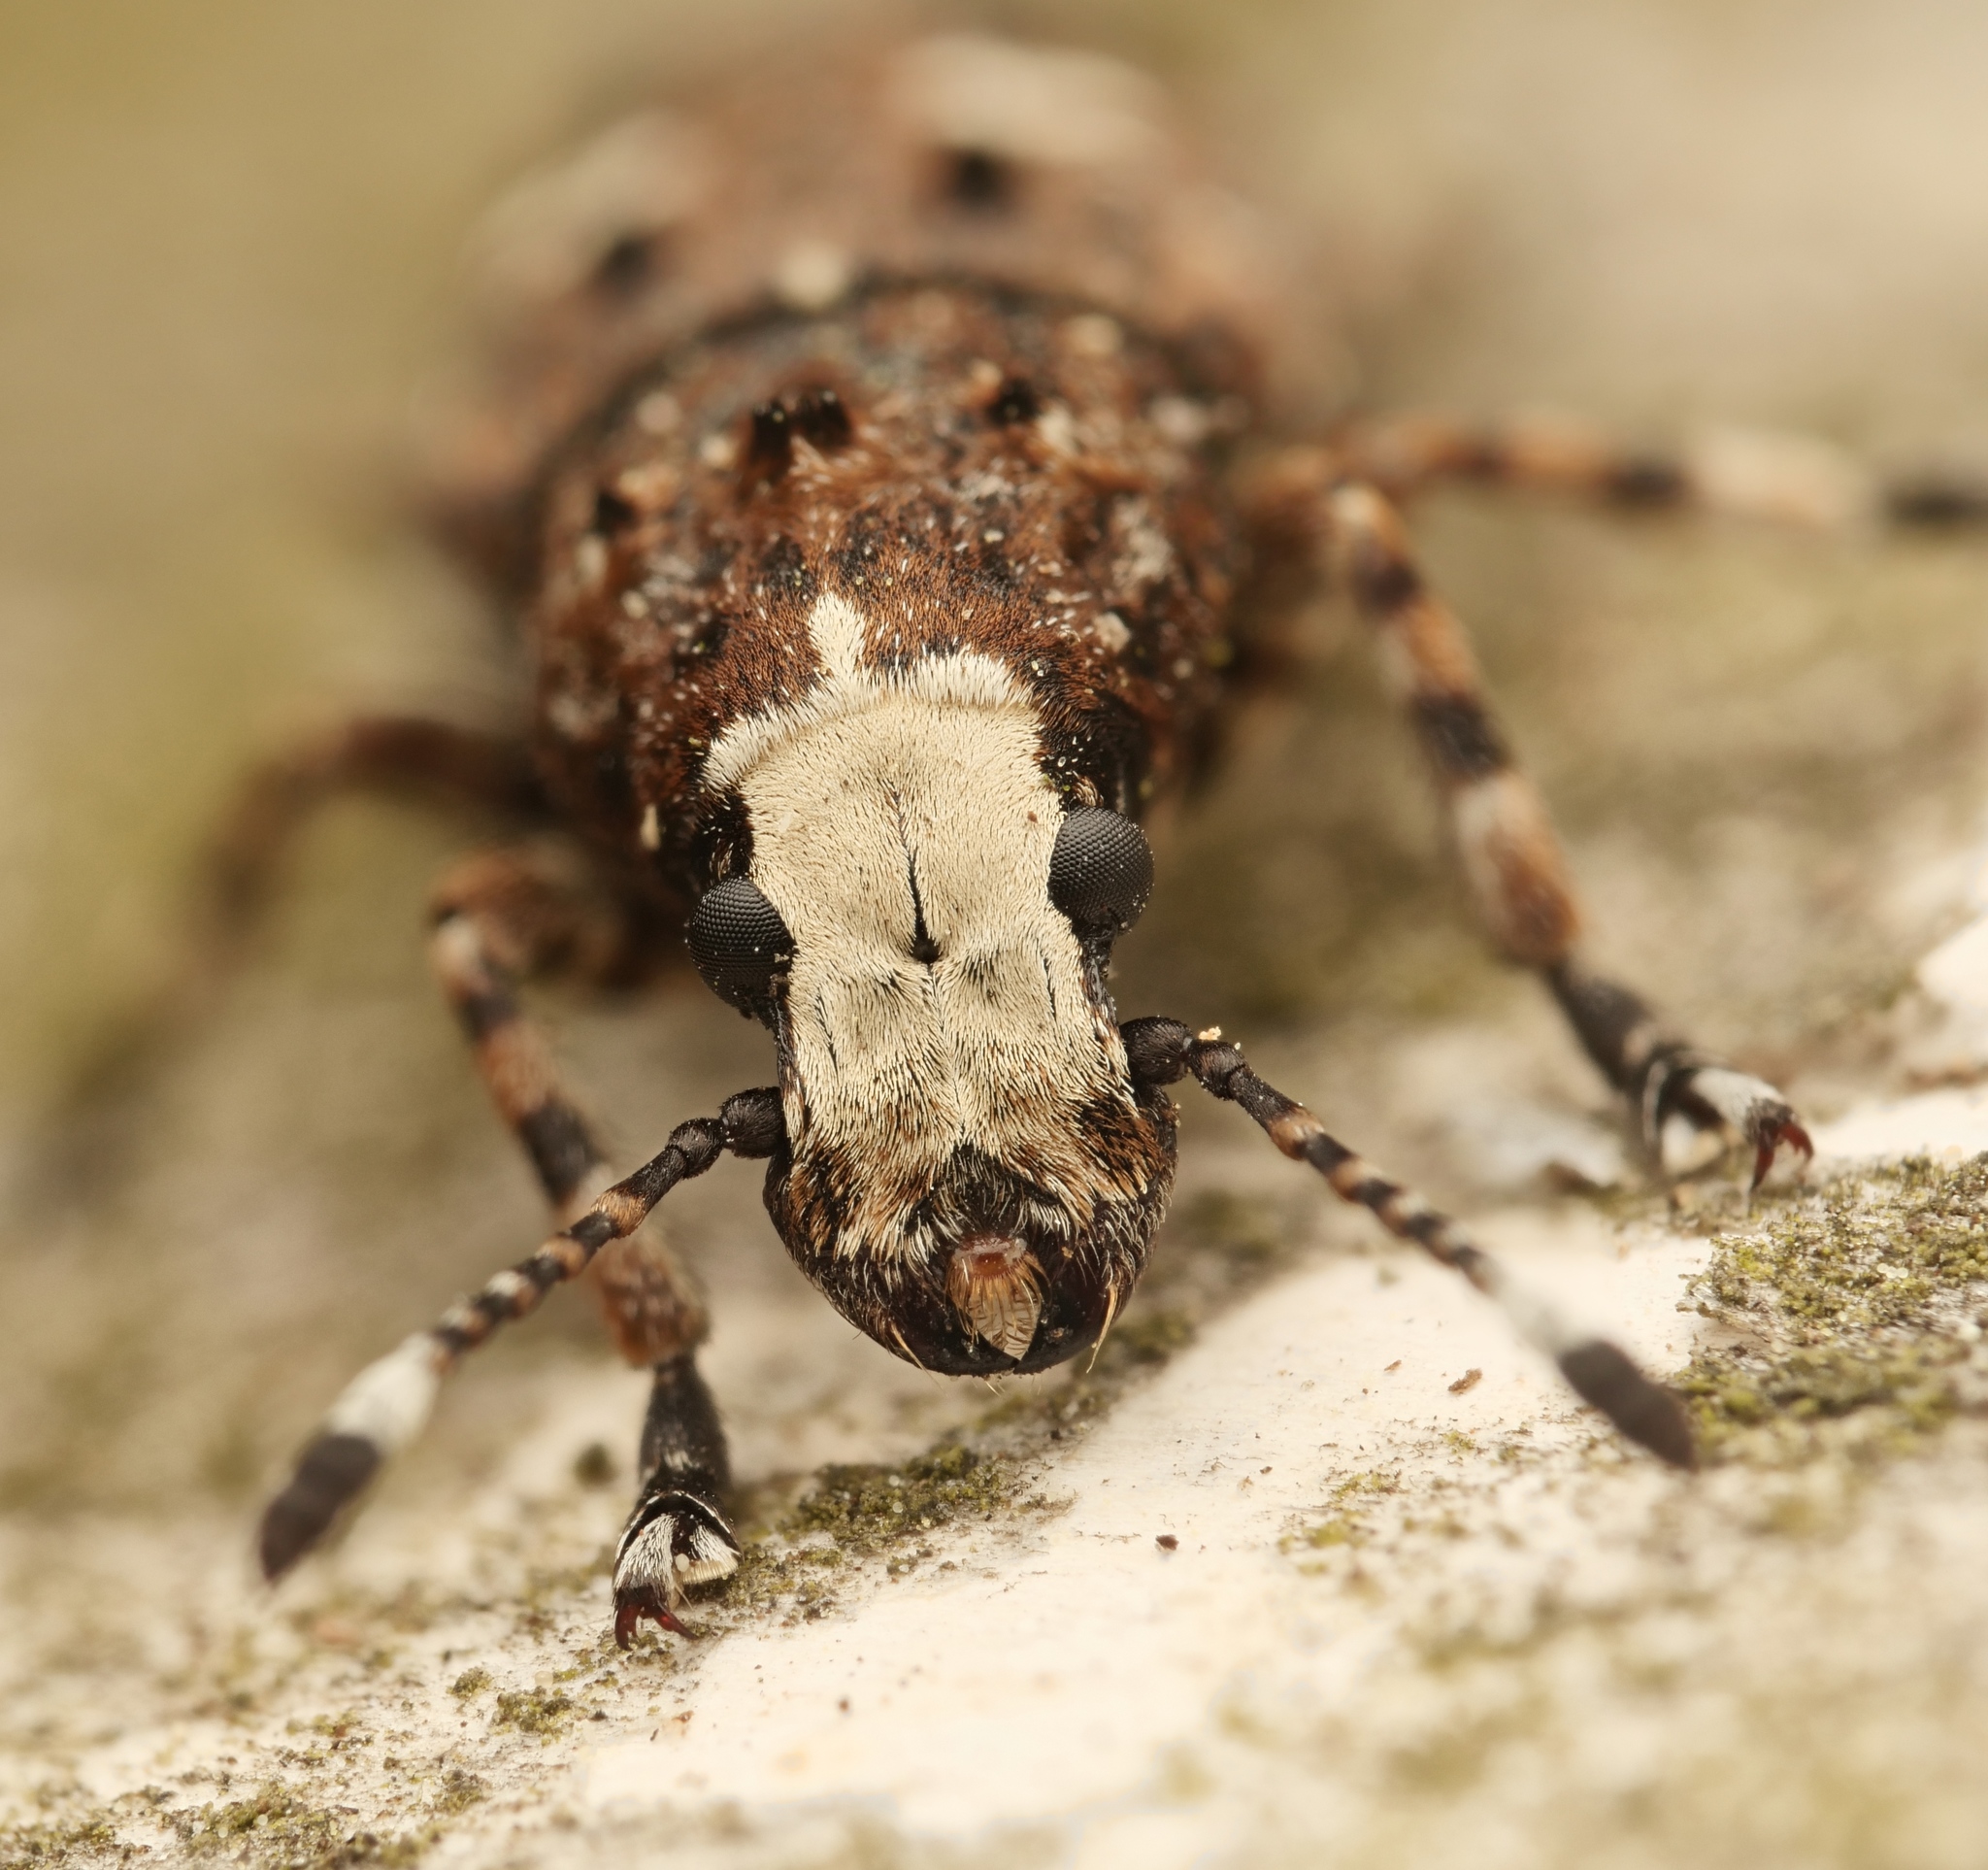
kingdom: Animalia
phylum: Arthropoda
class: Insecta
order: Coleoptera
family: Anthribidae
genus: Platystomos
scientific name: Platystomos albinus
